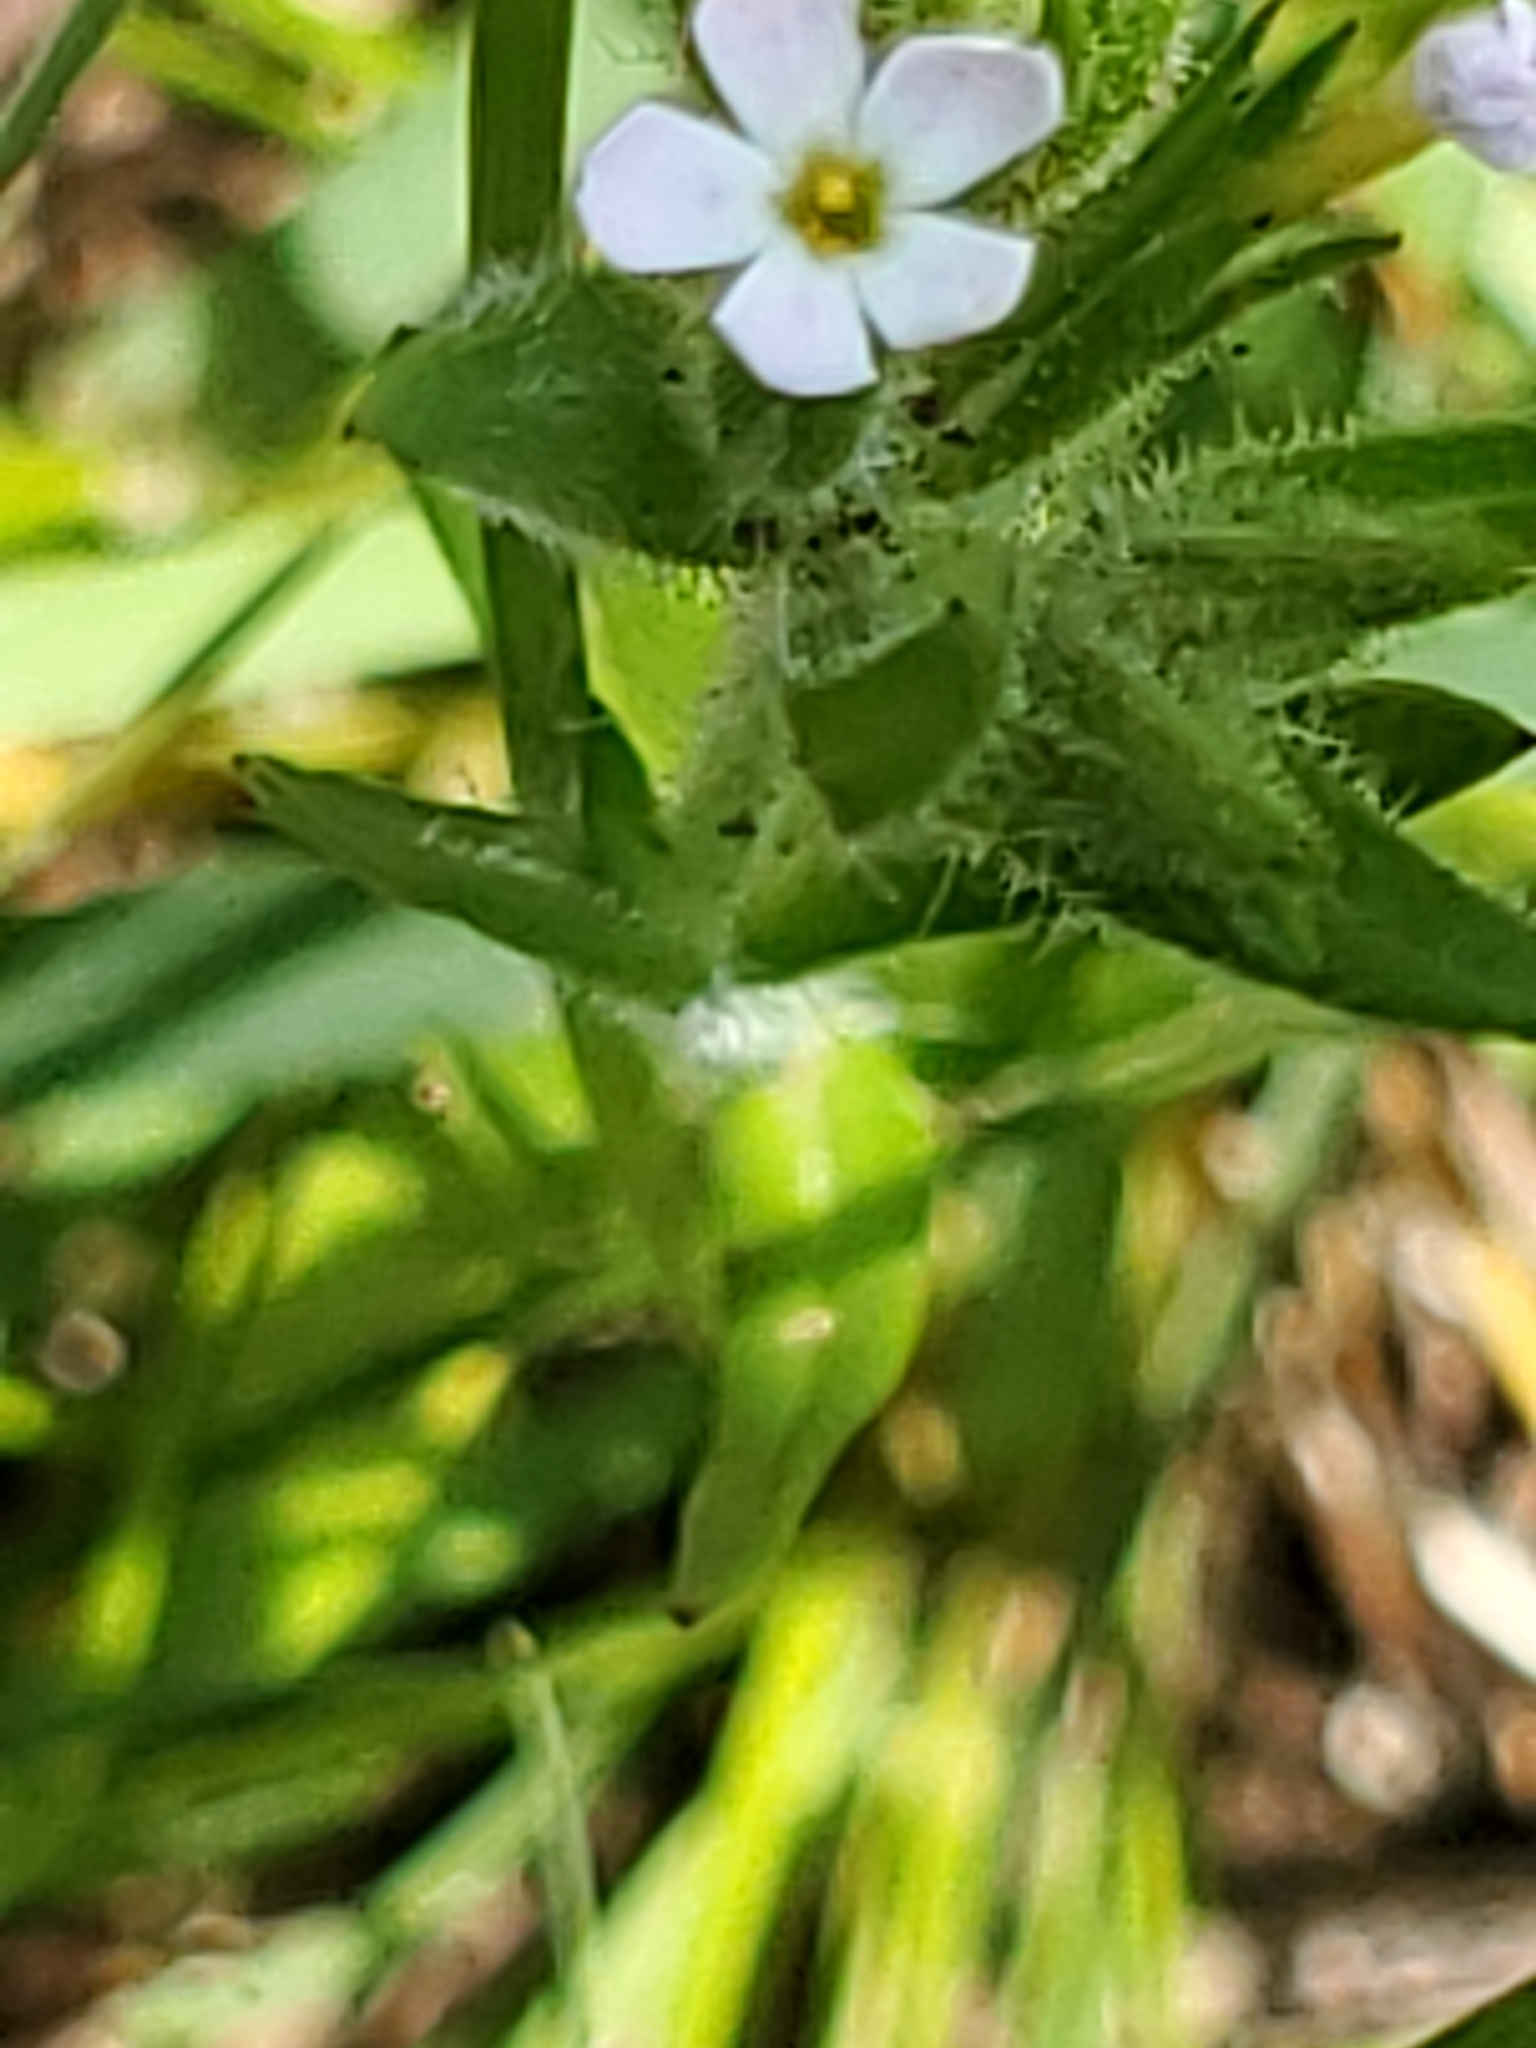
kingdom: Plantae
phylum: Tracheophyta
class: Magnoliopsida
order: Boraginales
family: Boraginaceae
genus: Buglossoides
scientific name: Buglossoides arvensis
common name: Corn gromwell
